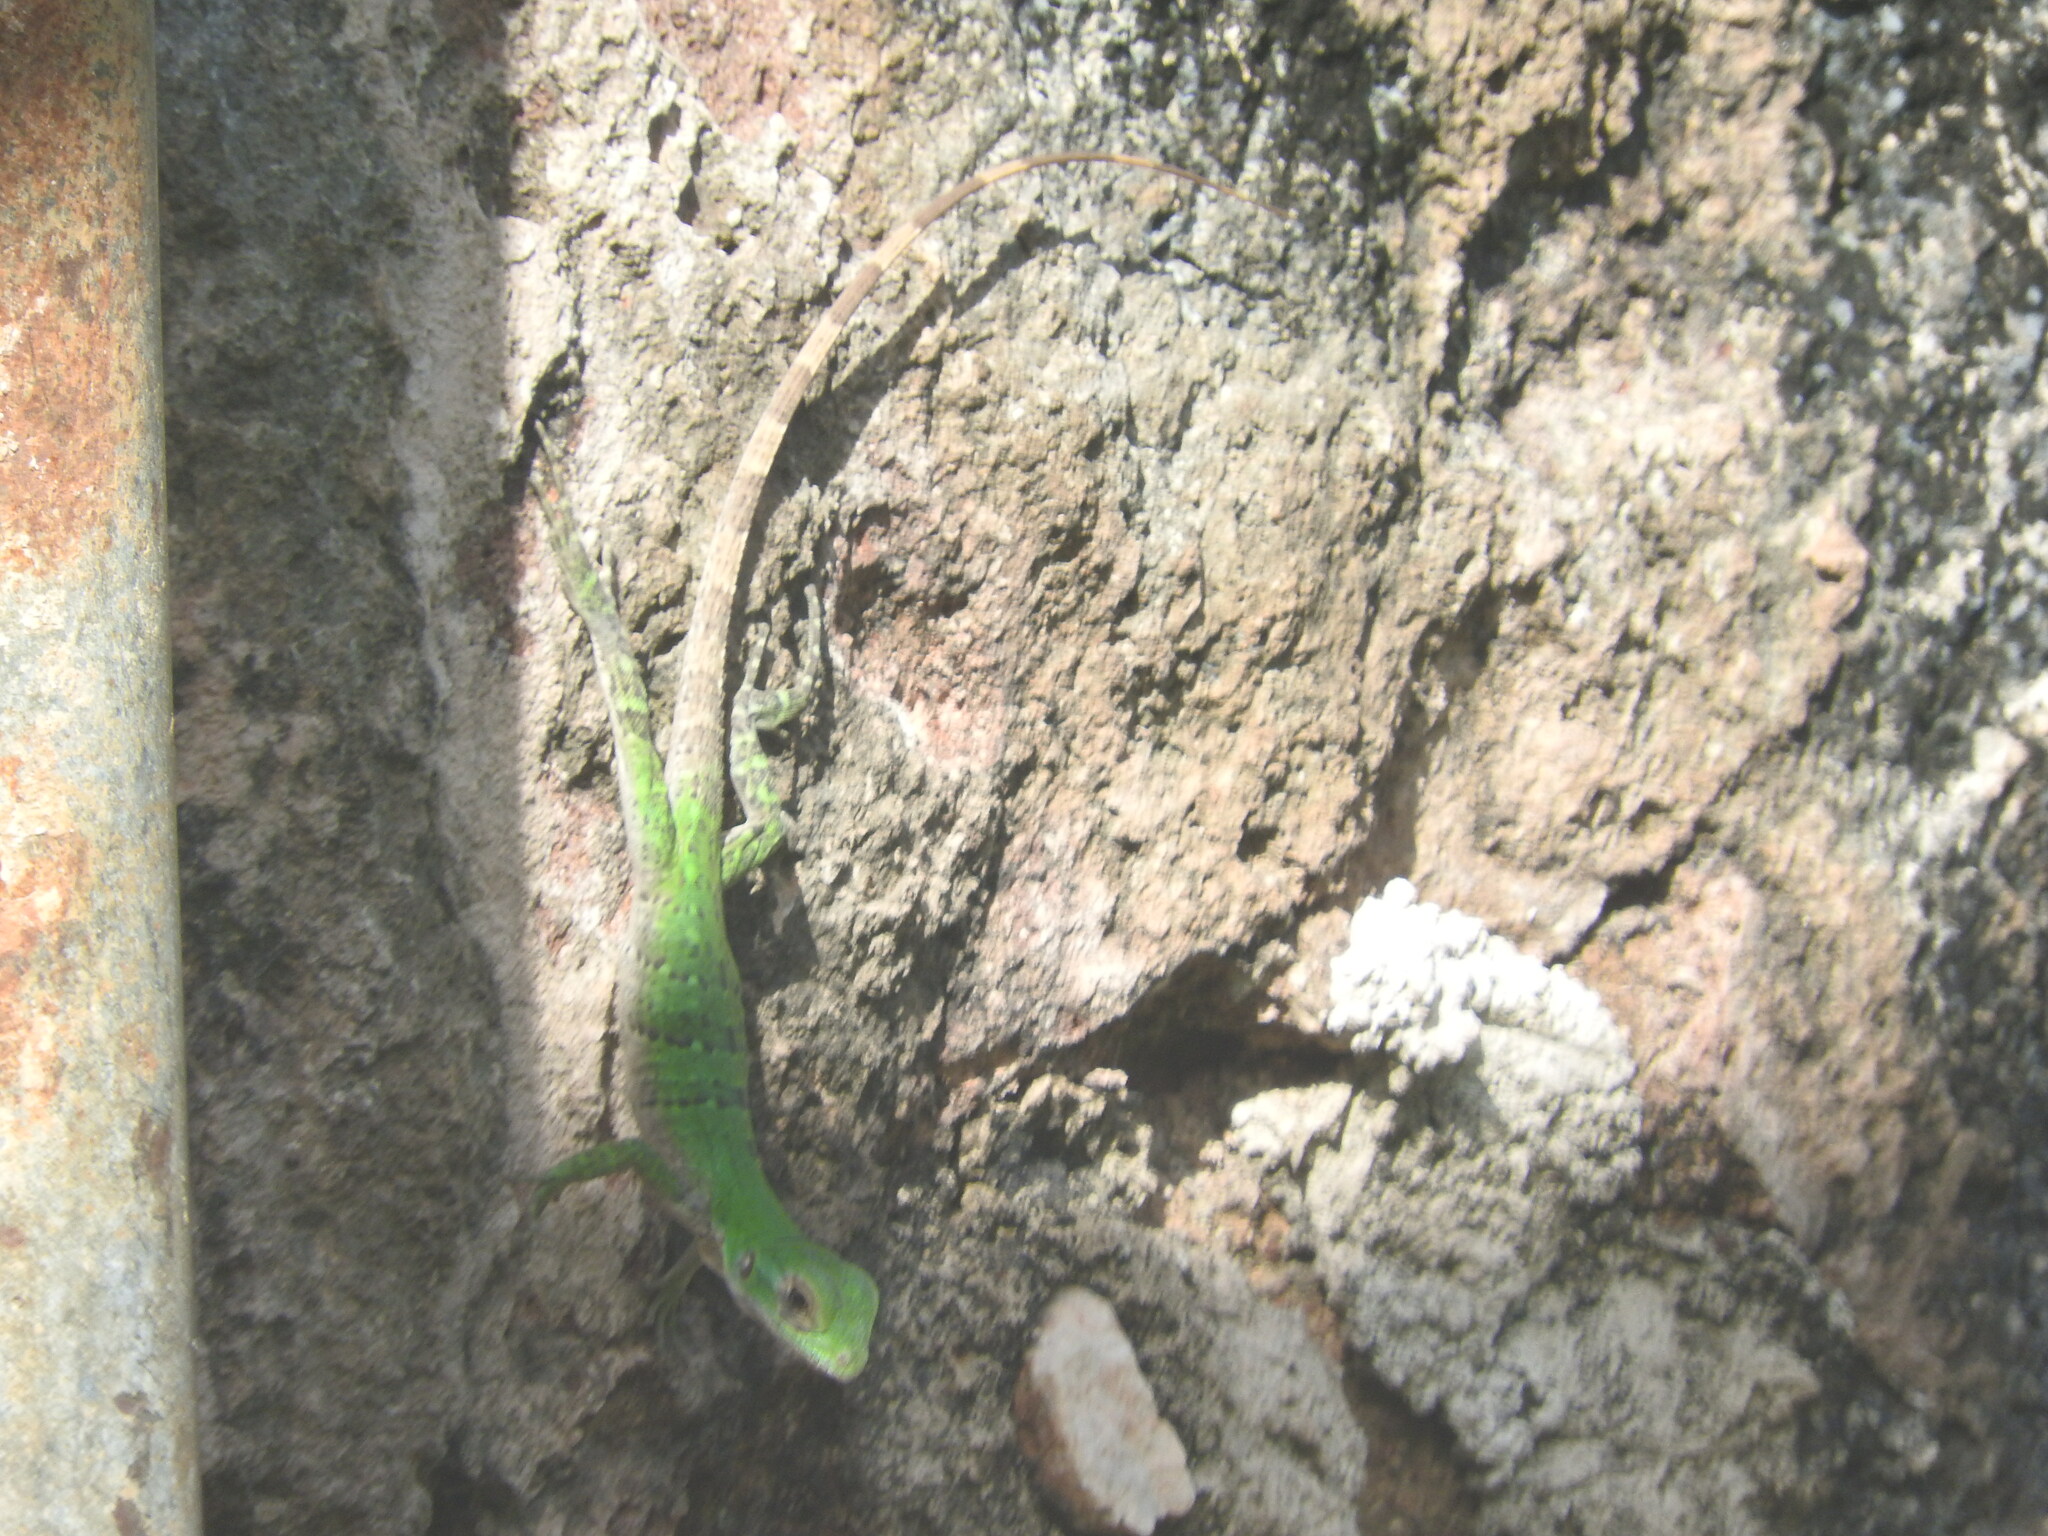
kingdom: Animalia
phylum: Chordata
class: Squamata
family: Iguanidae
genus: Ctenosaura
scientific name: Ctenosaura similis
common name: Black spiny-tailed iguana
